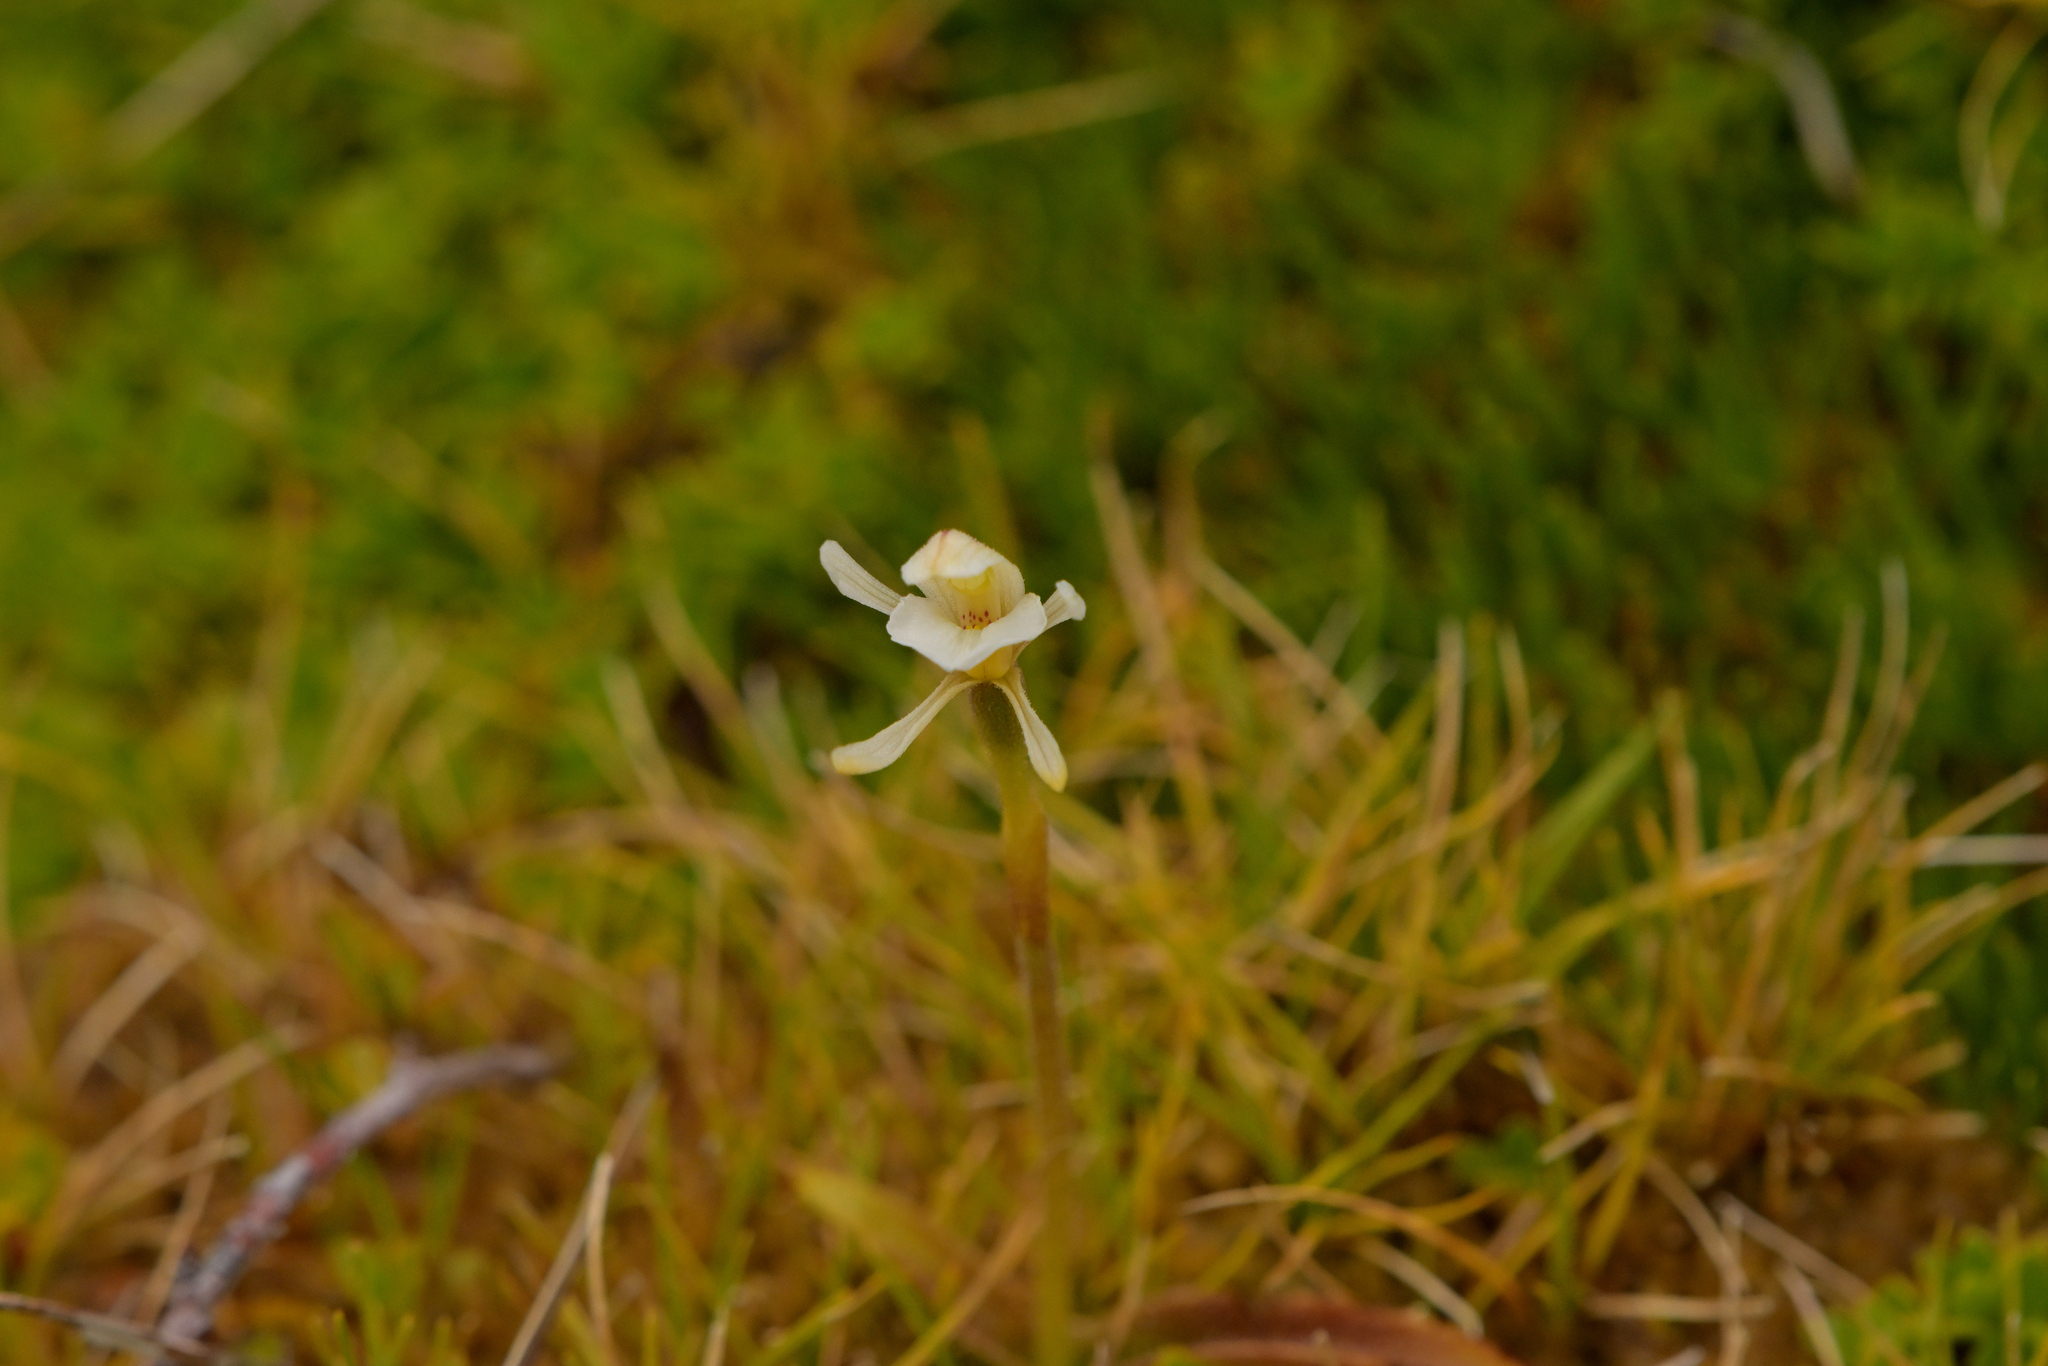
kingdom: Plantae
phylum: Tracheophyta
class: Liliopsida
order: Asparagales
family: Orchidaceae
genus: Aporostylis
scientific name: Aporostylis bifolia
